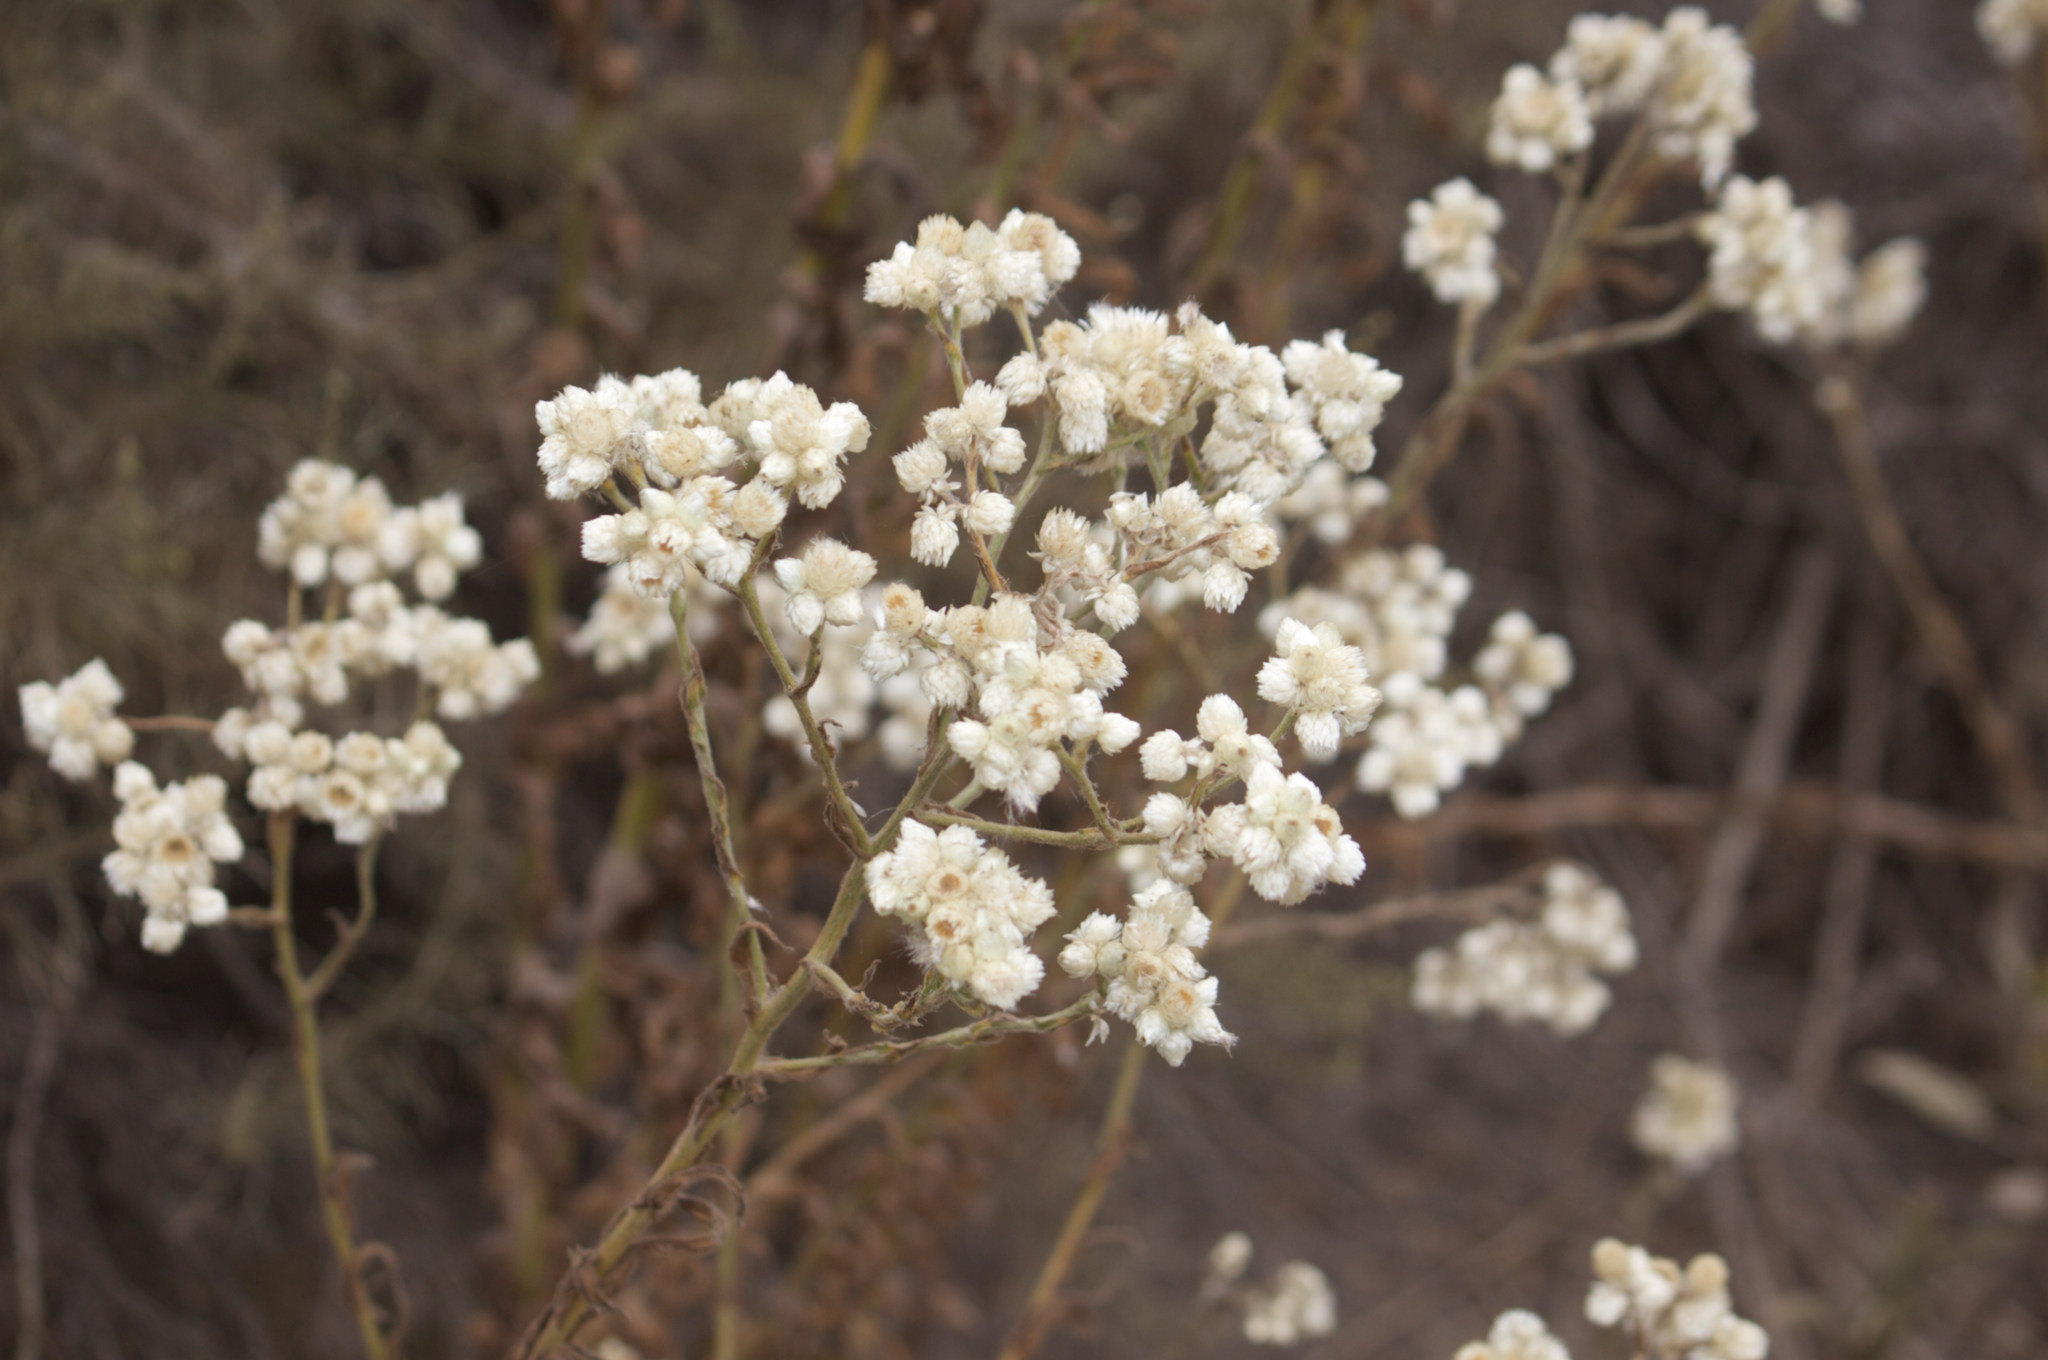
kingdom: Plantae
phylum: Tracheophyta
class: Magnoliopsida
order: Asterales
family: Asteraceae
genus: Pseudognaphalium
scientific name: Pseudognaphalium californicum
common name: California rabbit-tobacco
